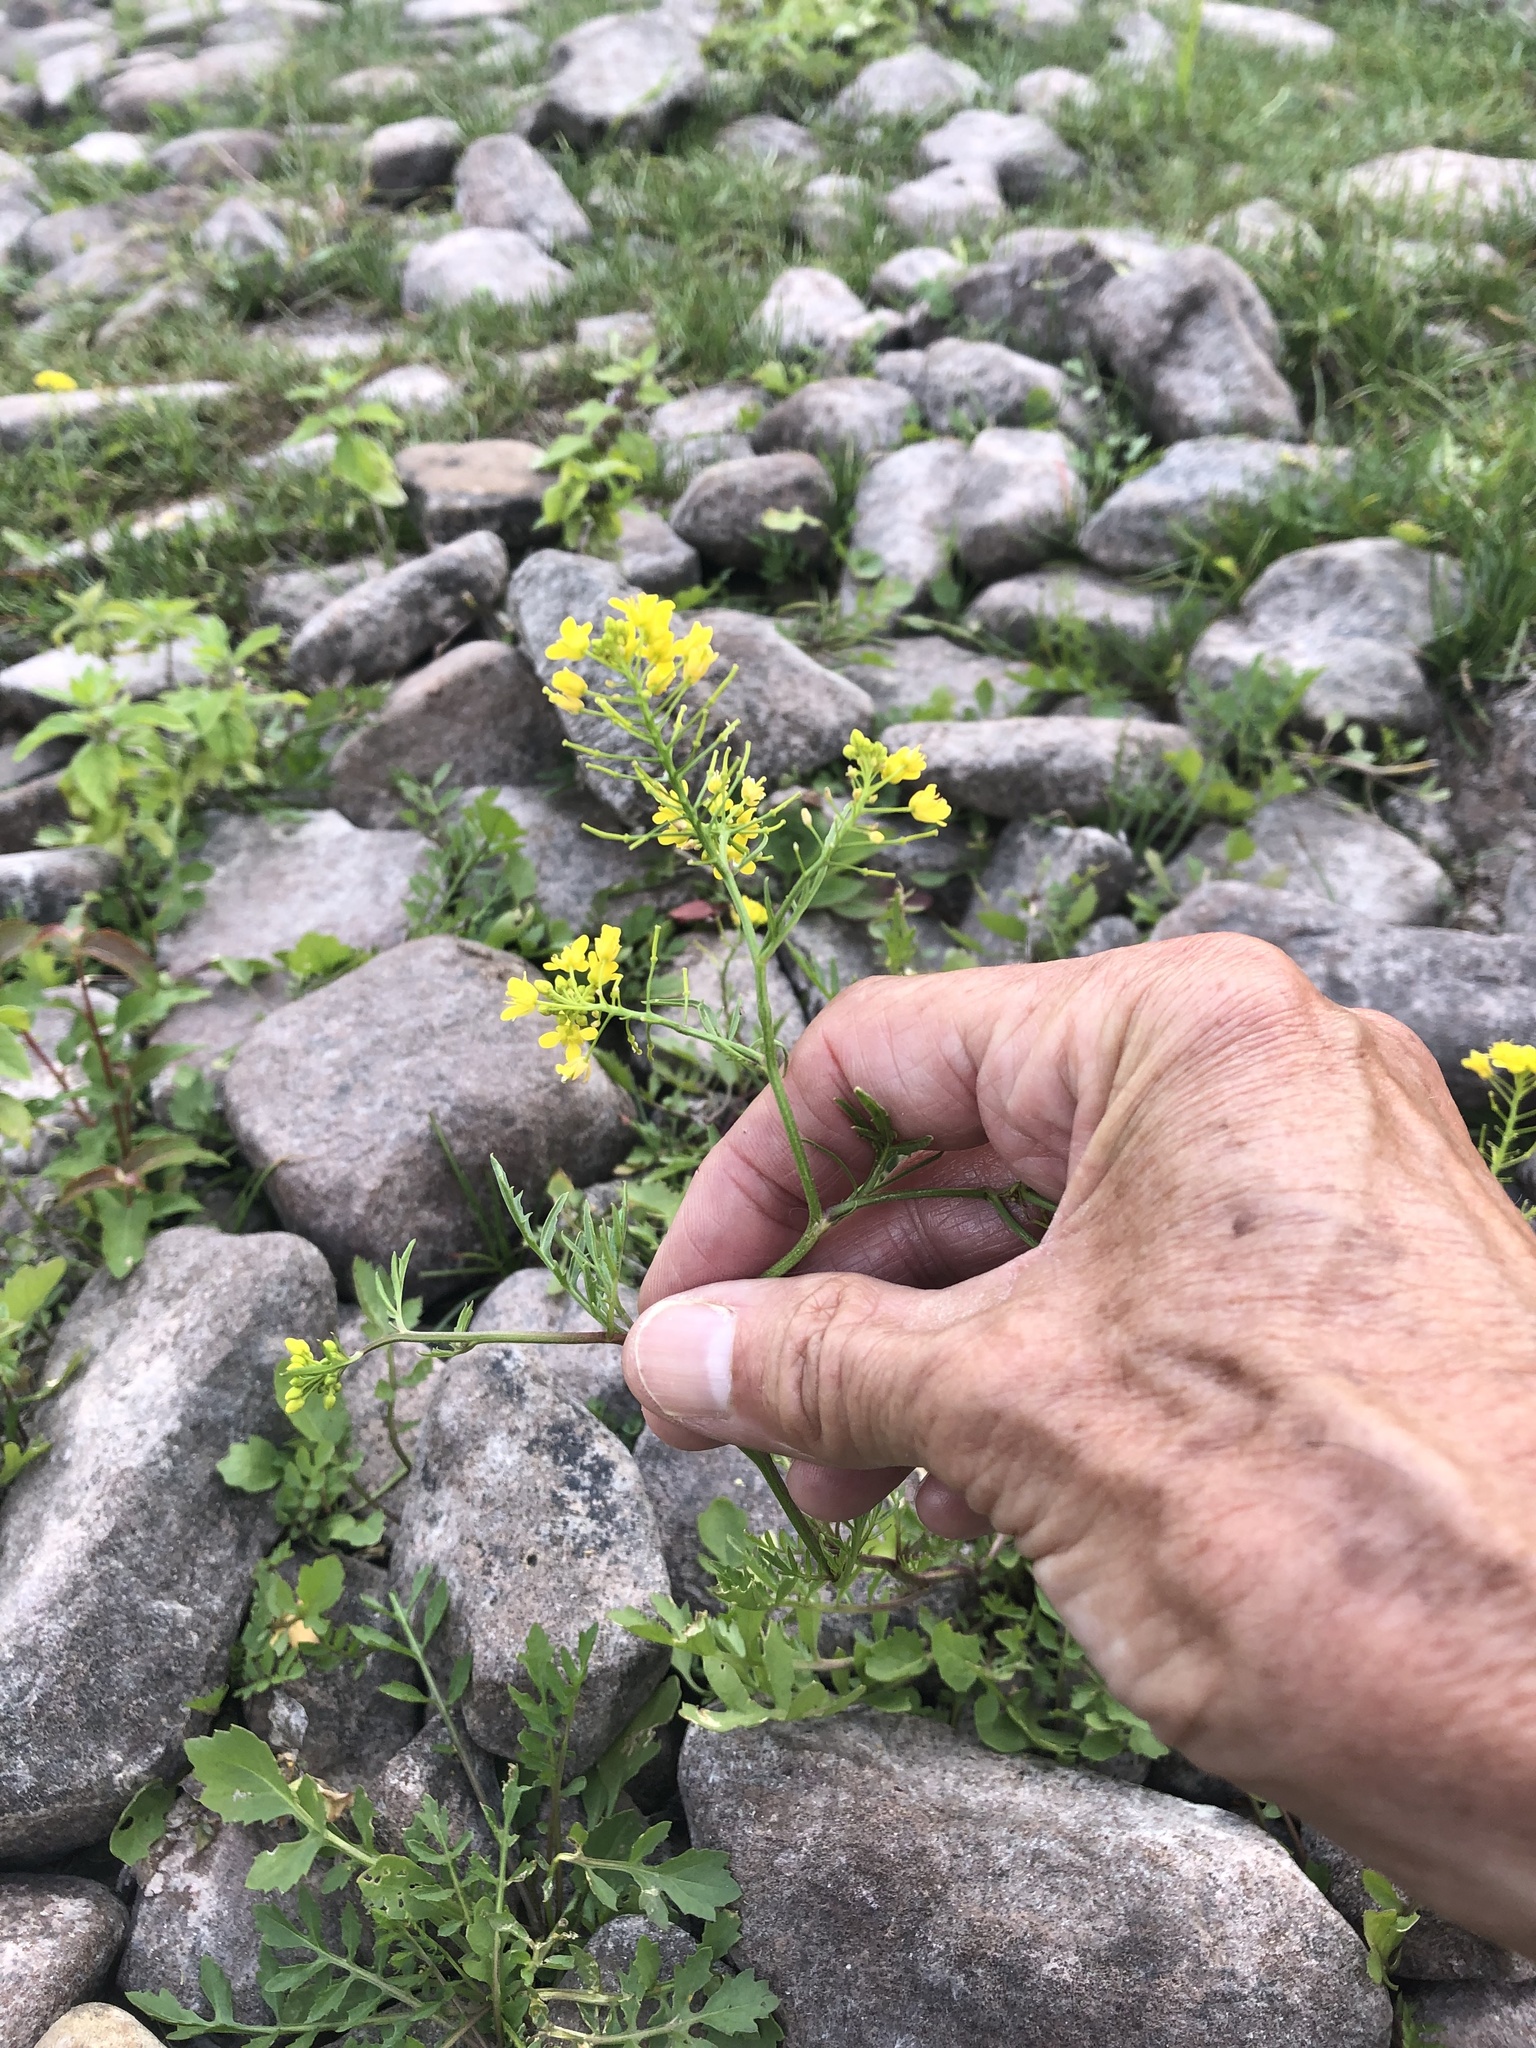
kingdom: Plantae
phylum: Tracheophyta
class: Magnoliopsida
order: Brassicales
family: Brassicaceae
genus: Rorippa
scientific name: Rorippa sylvestris
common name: Creeping yellowcress
